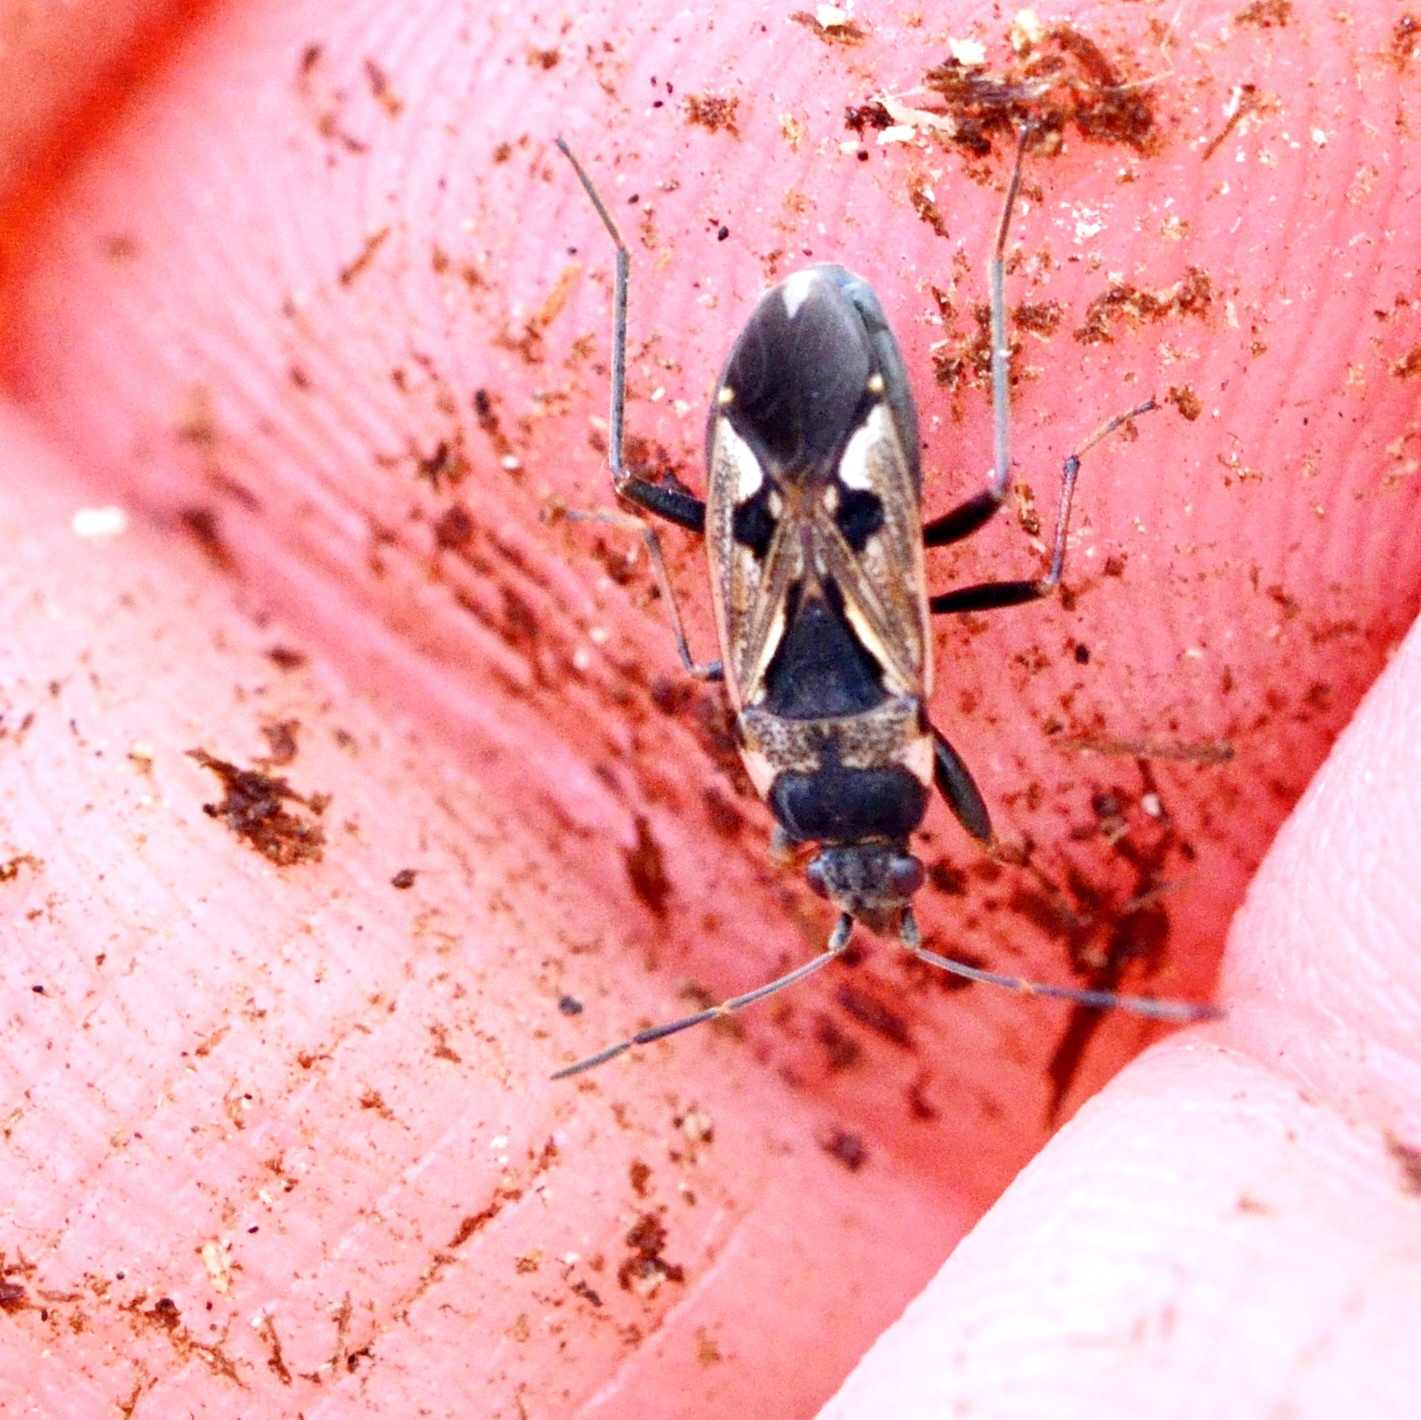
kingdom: Animalia
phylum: Arthropoda
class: Insecta
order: Hemiptera
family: Rhyparochromidae
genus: Rhyparochromus
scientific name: Rhyparochromus vulgaris
